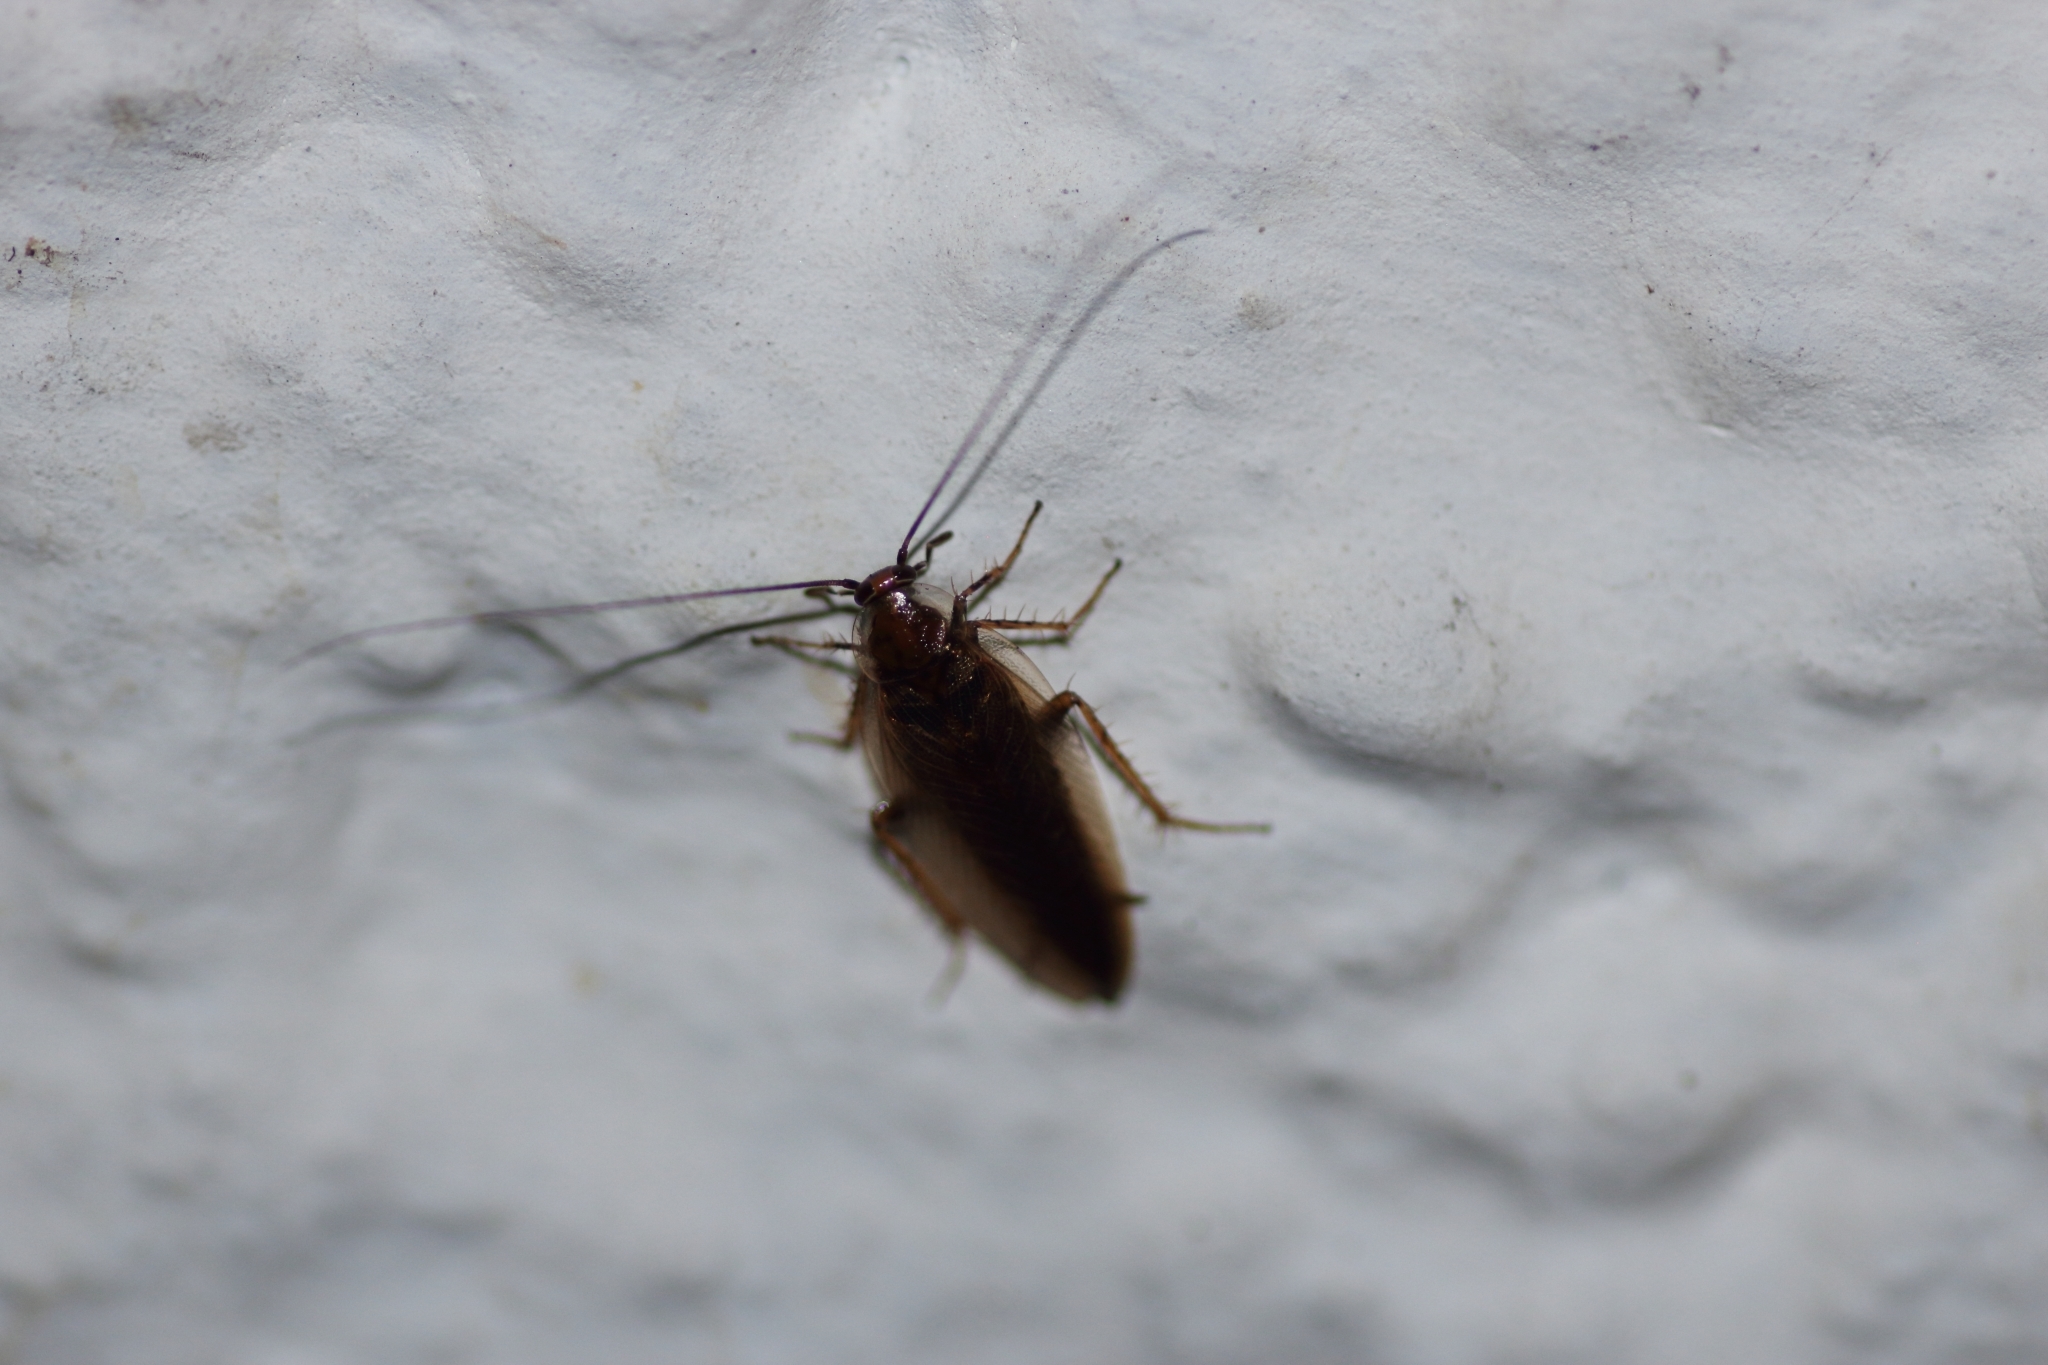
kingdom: Animalia
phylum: Arthropoda
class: Insecta
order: Blattodea
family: Ectobiidae
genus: Ectobius
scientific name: Ectobius vittiventris
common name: Garden cockroach
